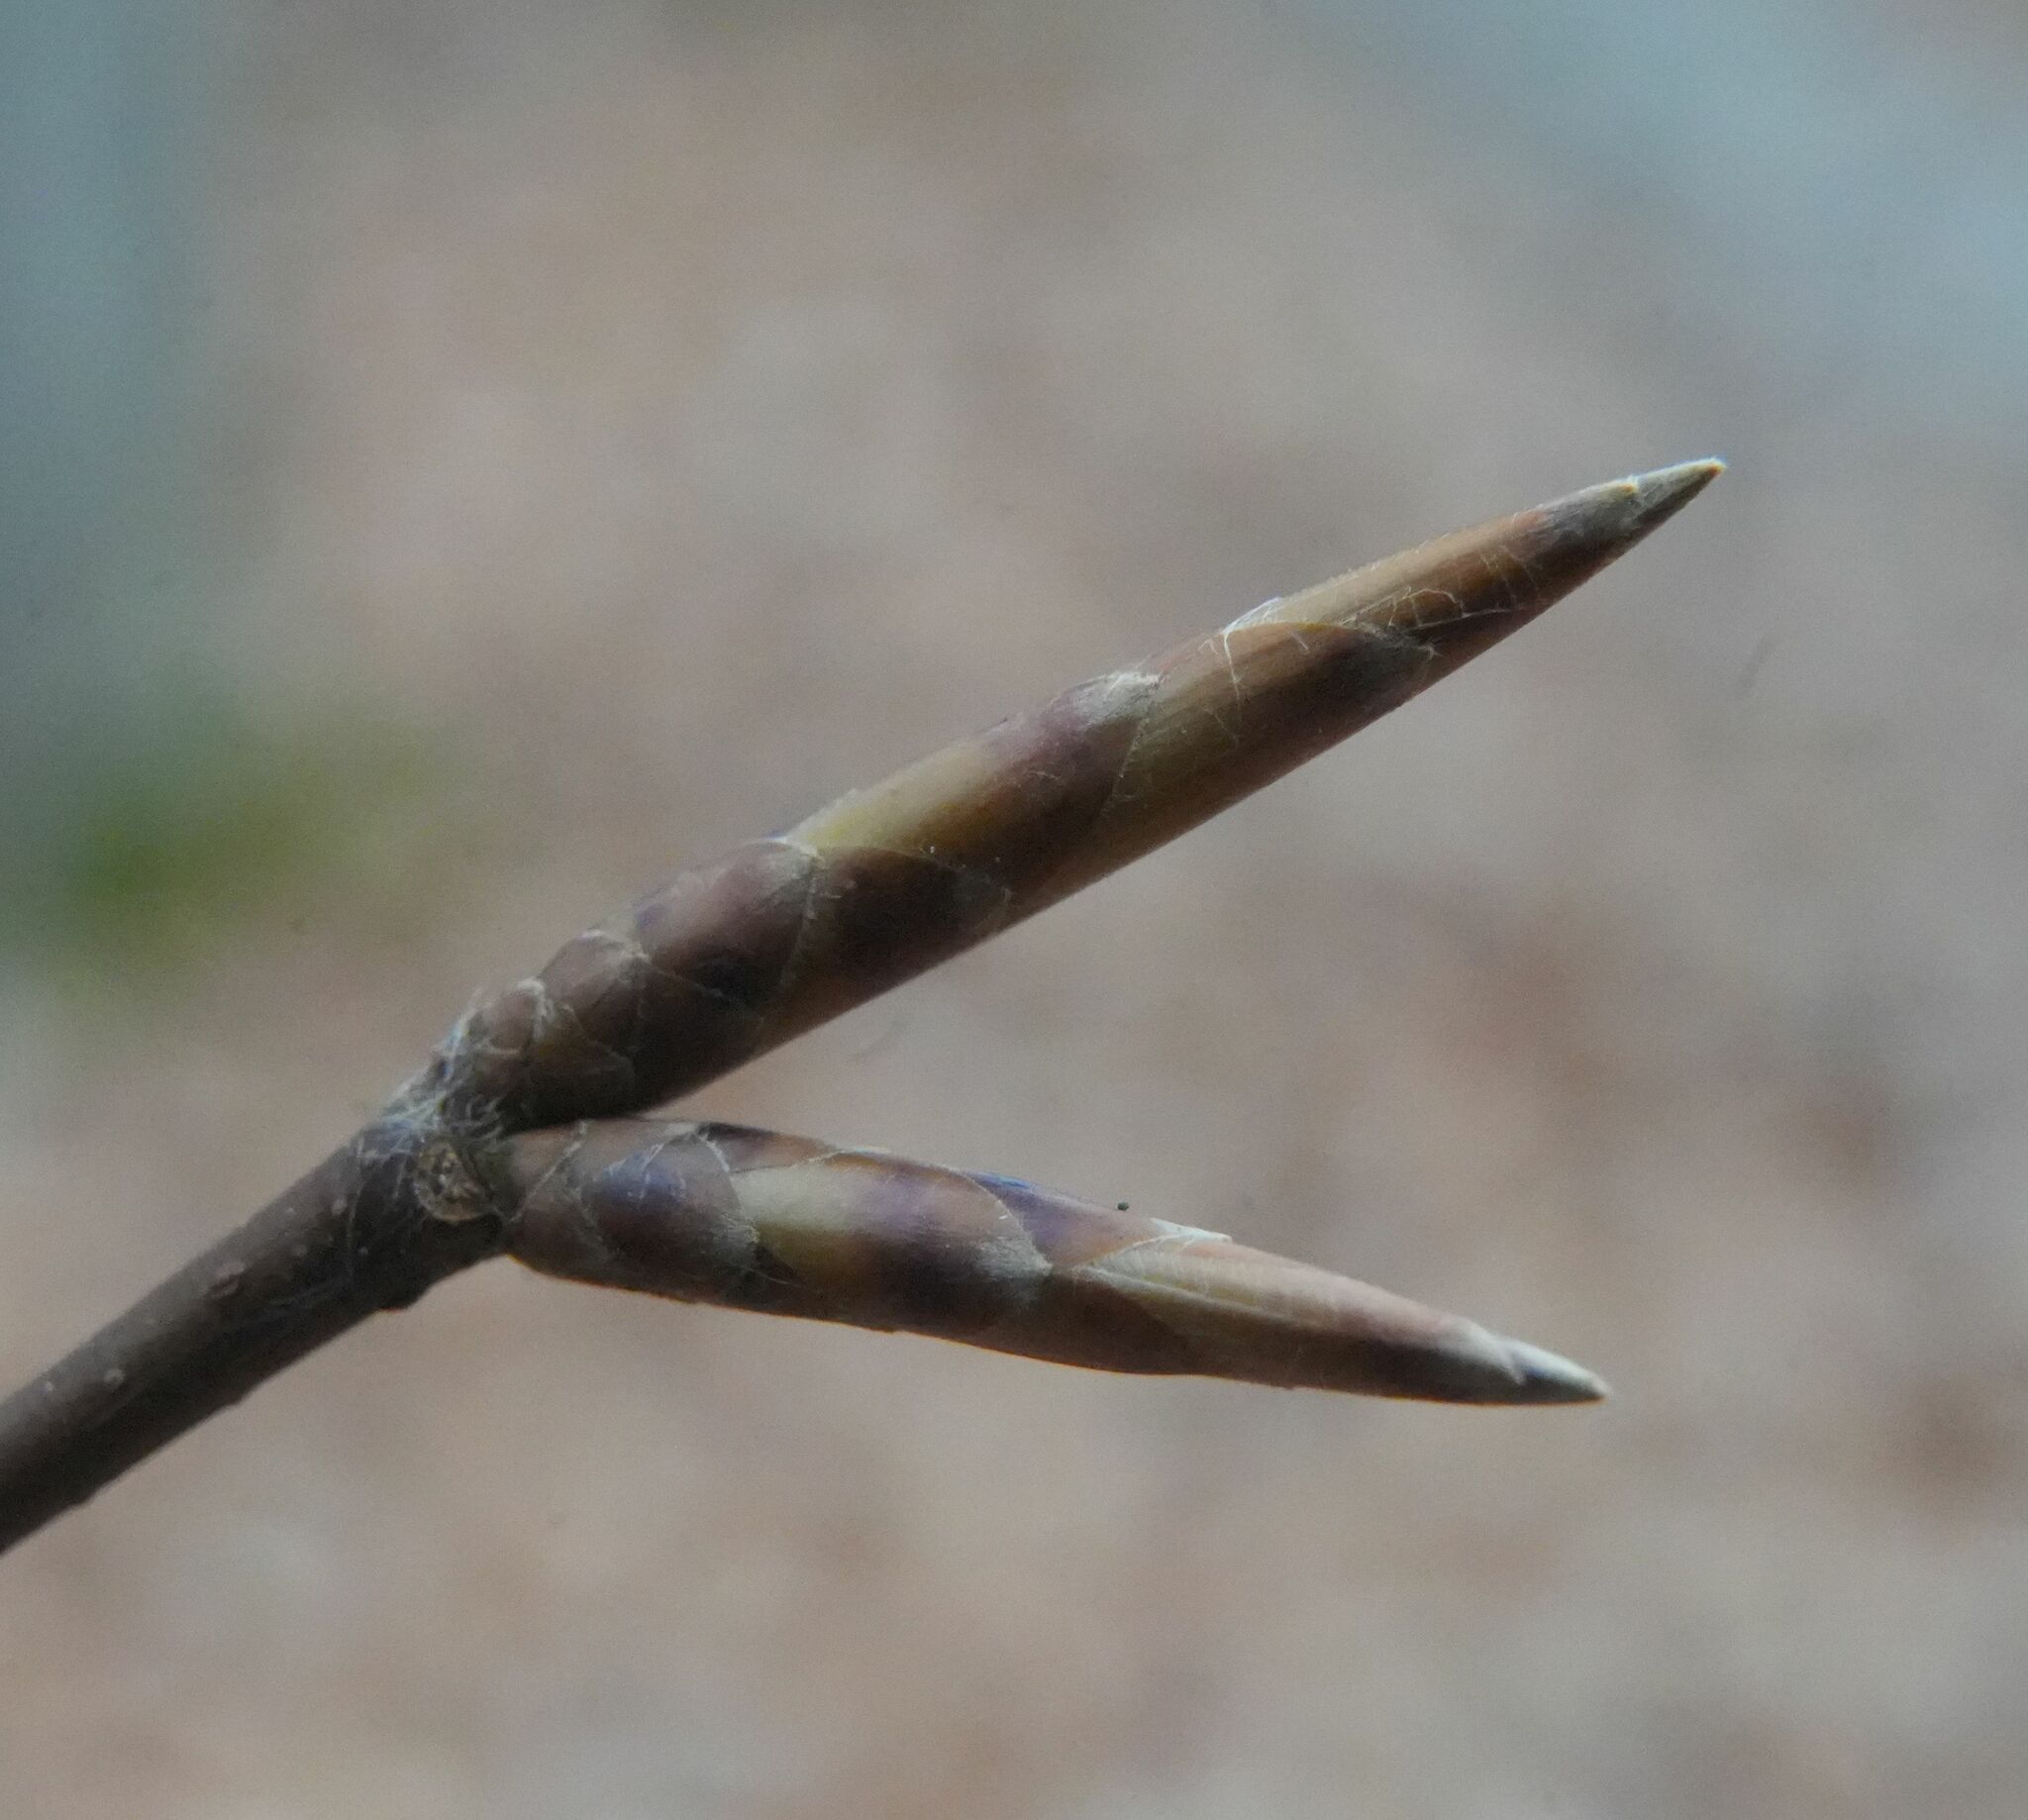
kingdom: Plantae
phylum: Tracheophyta
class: Magnoliopsida
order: Fagales
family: Fagaceae
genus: Fagus
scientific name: Fagus grandifolia
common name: American beech
